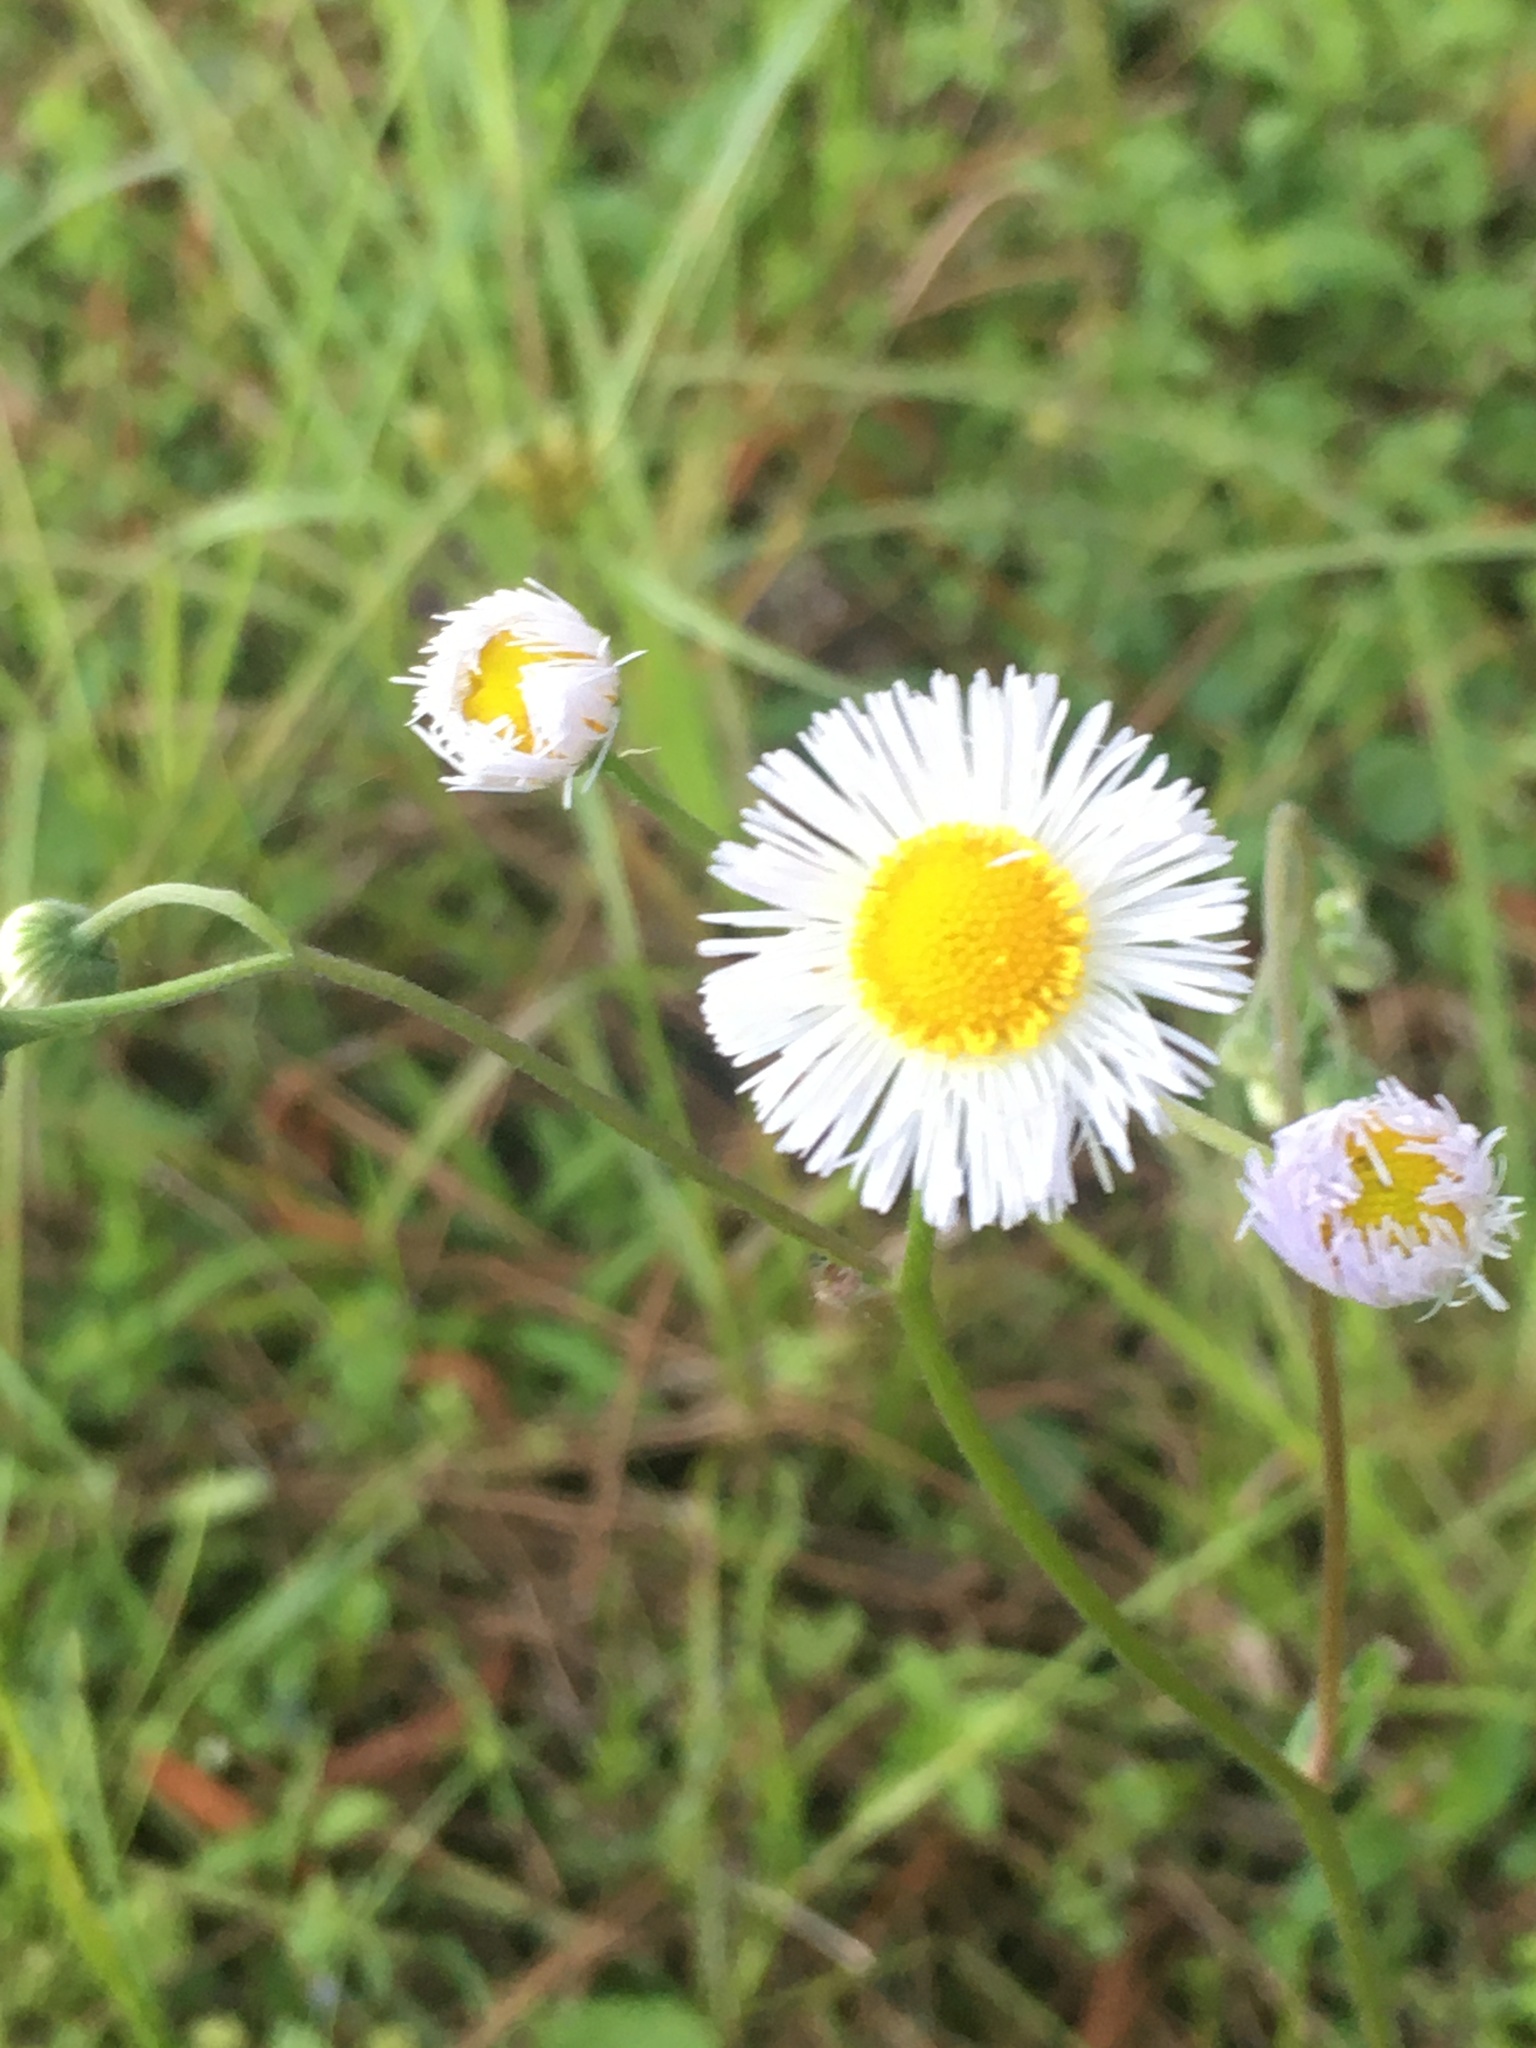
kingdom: Plantae
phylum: Tracheophyta
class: Magnoliopsida
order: Asterales
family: Asteraceae
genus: Erigeron
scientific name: Erigeron quercifolius
